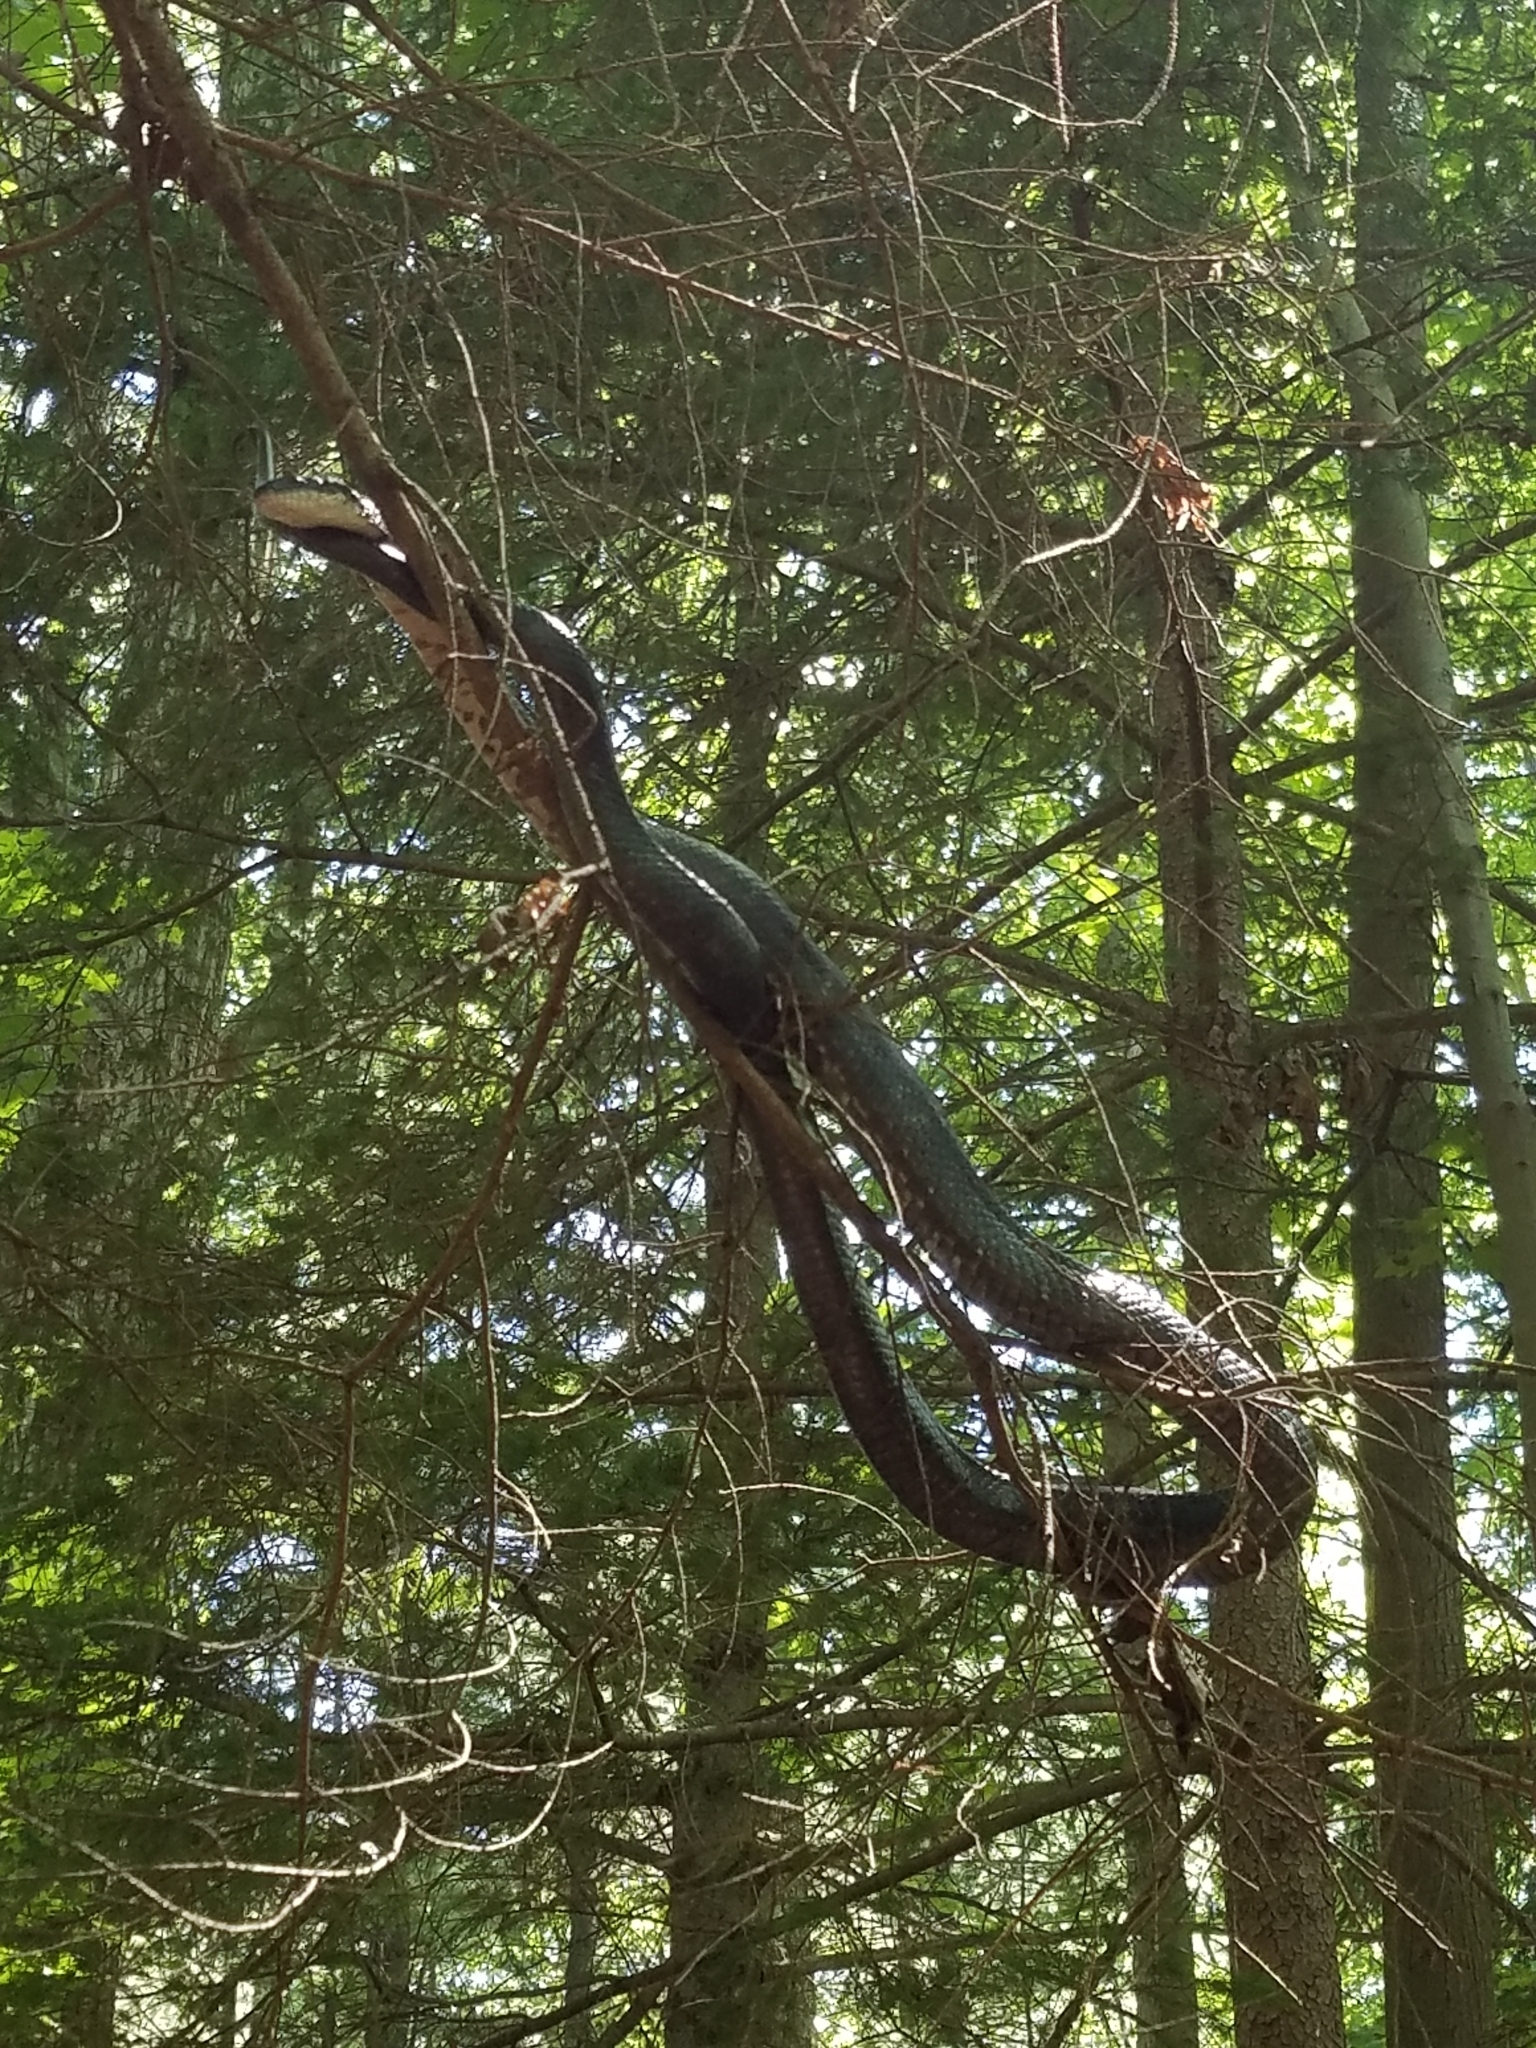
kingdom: Animalia
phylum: Chordata
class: Squamata
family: Colubridae
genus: Pantherophis
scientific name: Pantherophis alleghaniensis
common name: Eastern rat snake
